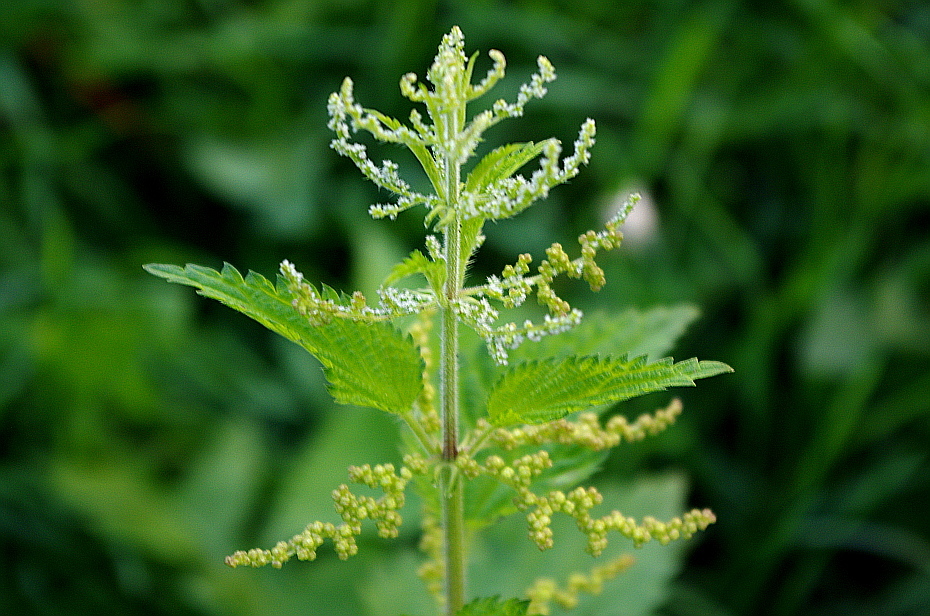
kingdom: Plantae
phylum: Tracheophyta
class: Magnoliopsida
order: Rosales
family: Urticaceae
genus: Urtica
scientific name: Urtica dioica
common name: Common nettle
